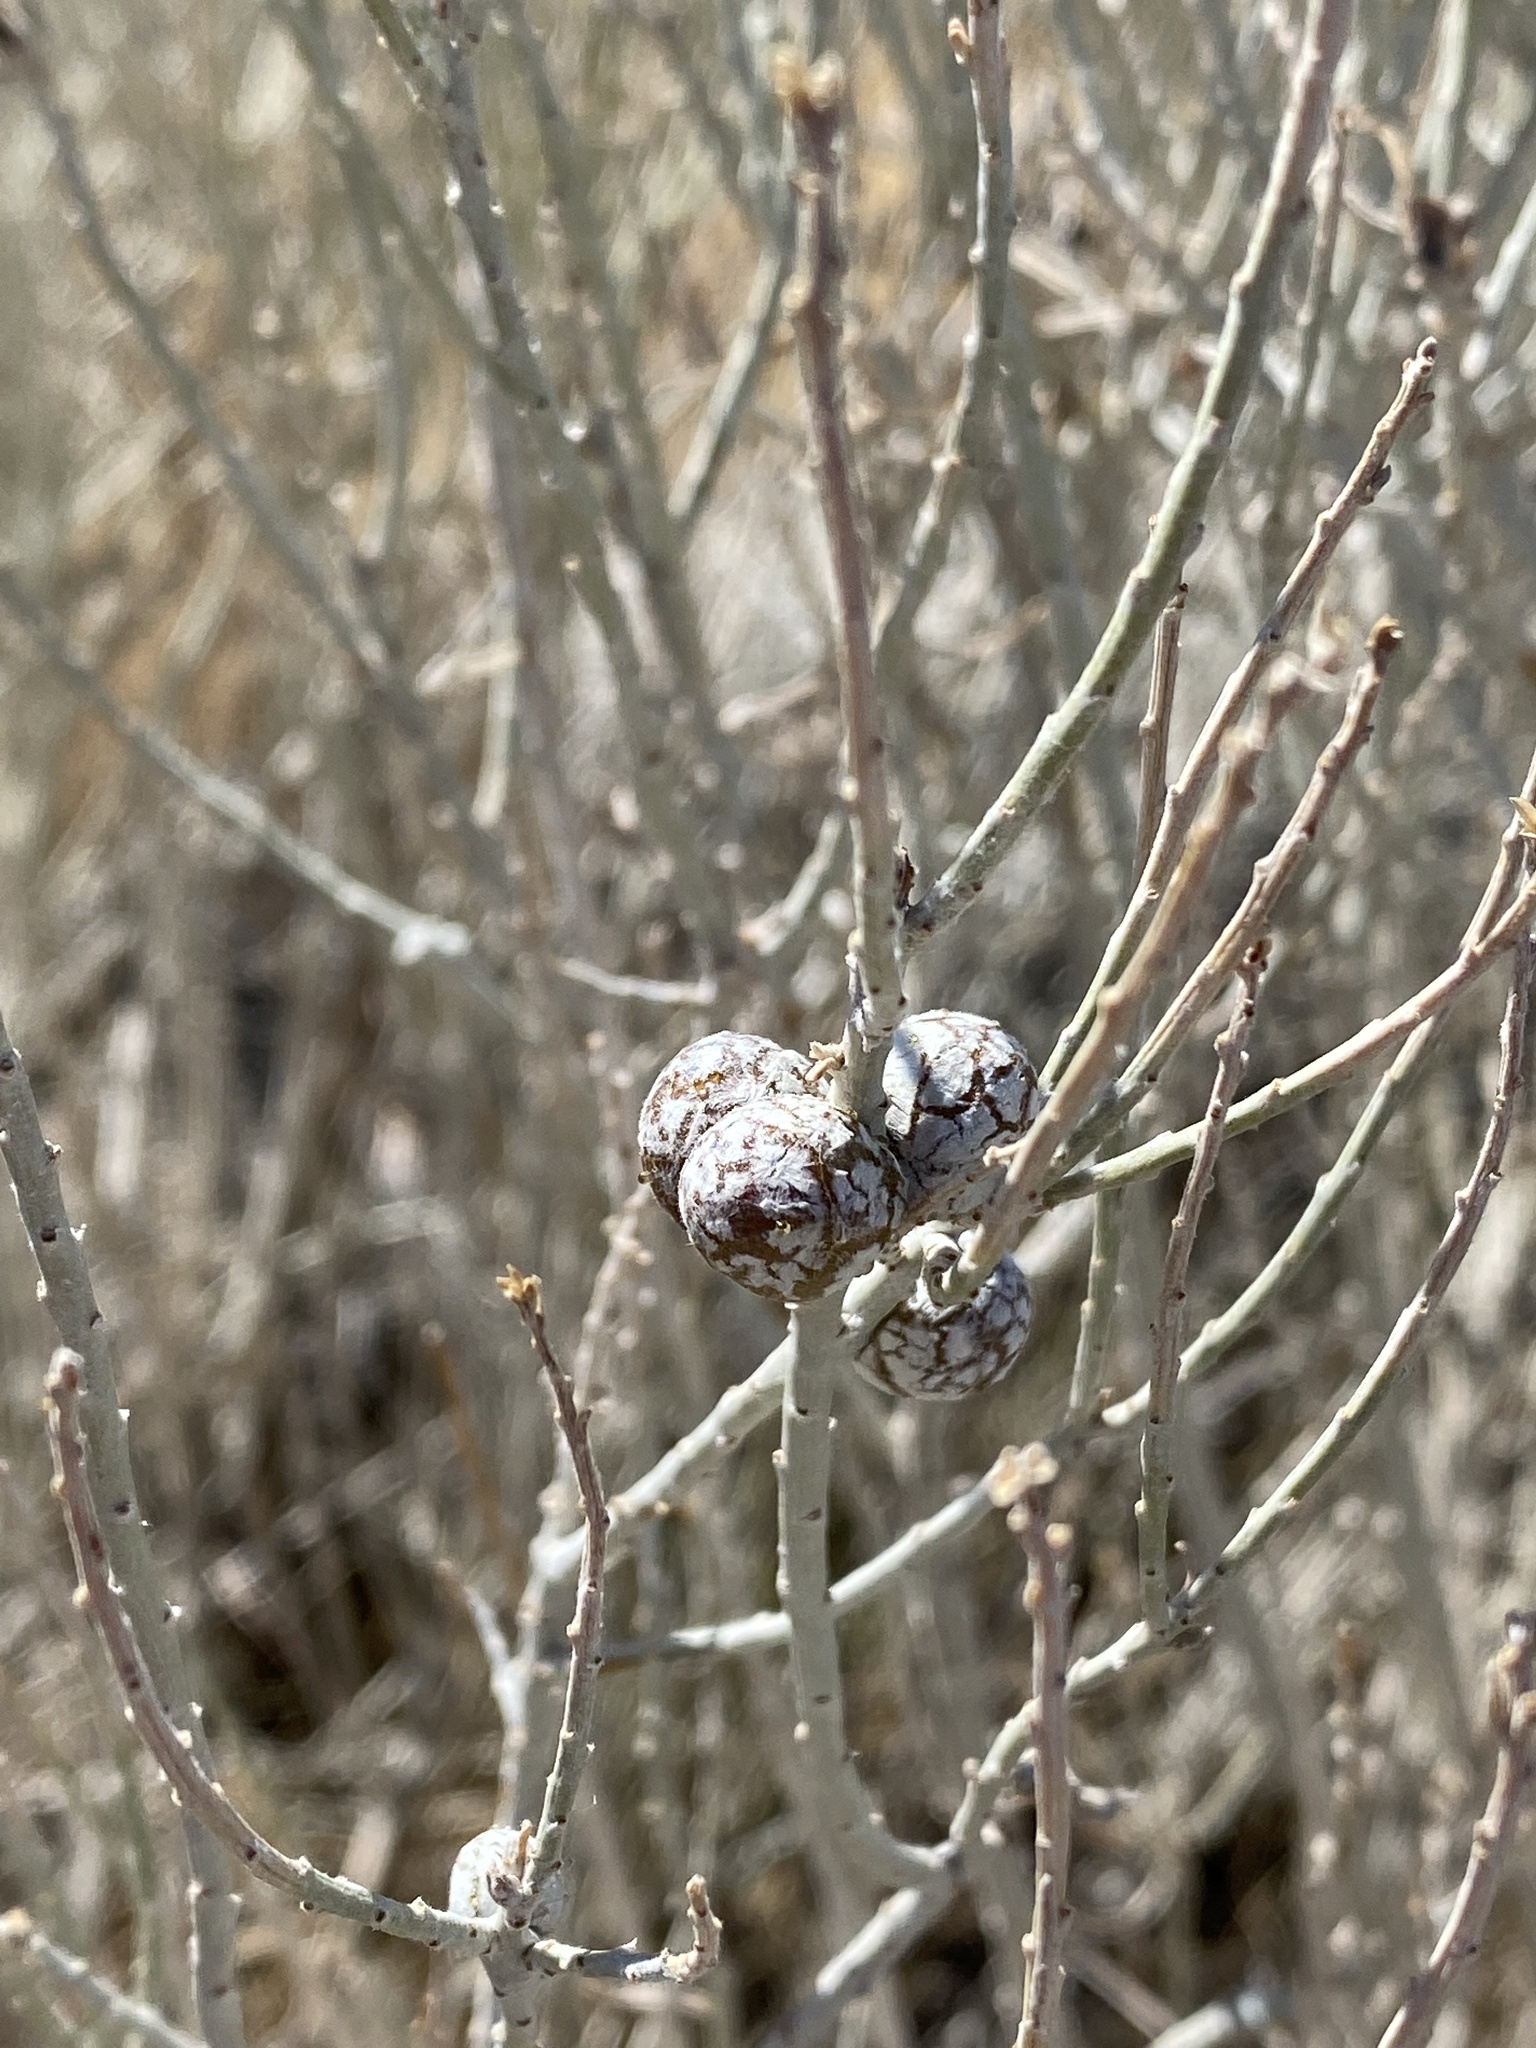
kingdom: Animalia
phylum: Arthropoda
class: Insecta
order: Diptera
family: Tephritidae
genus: Aciurina
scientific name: Aciurina trixa
